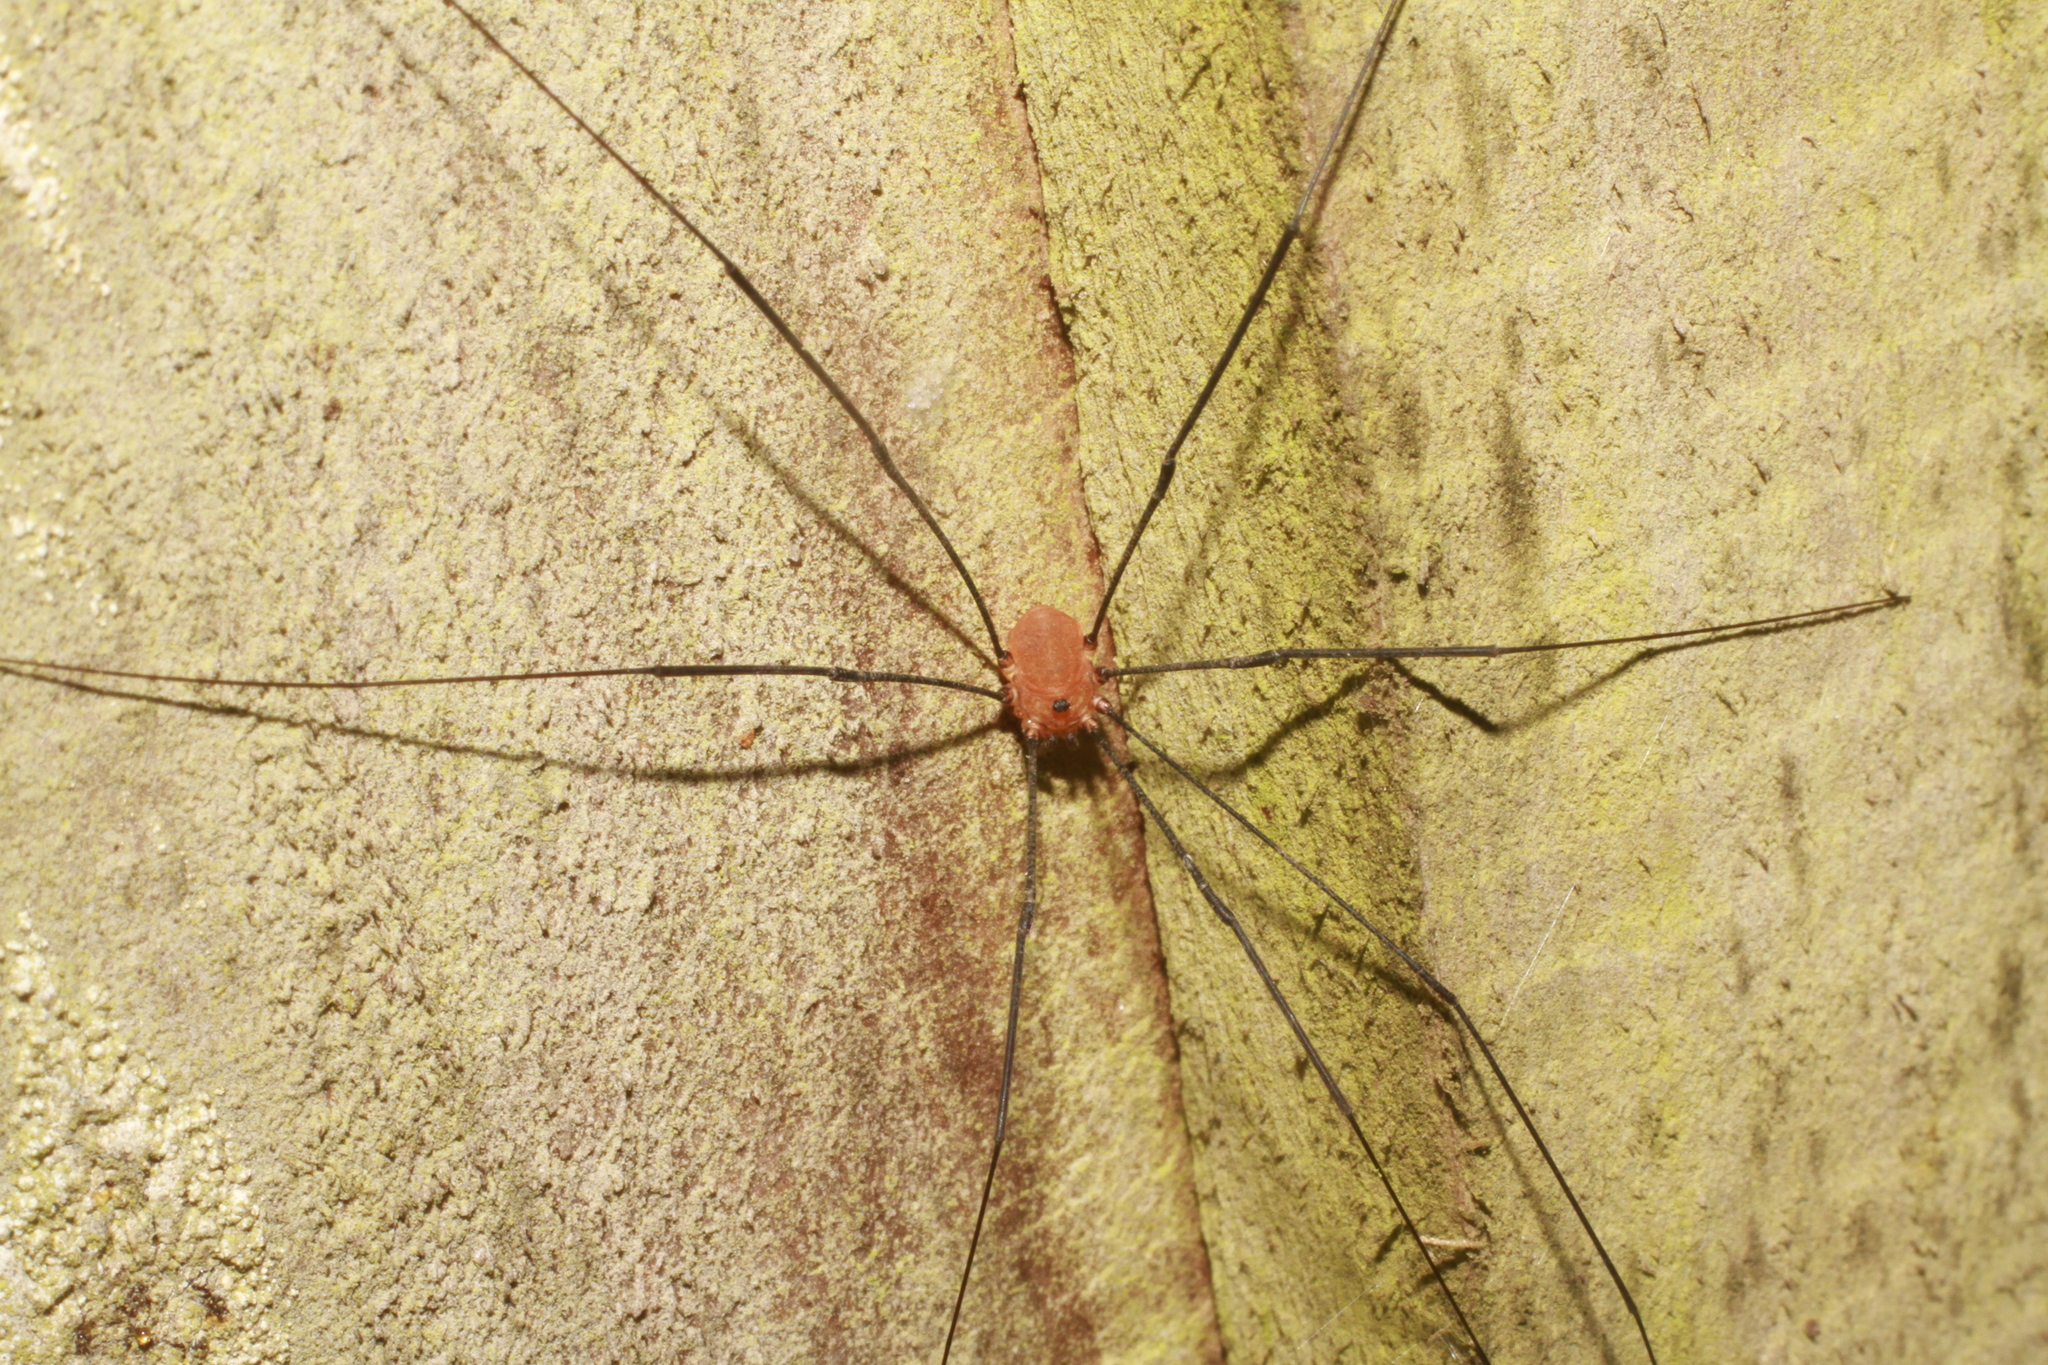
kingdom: Animalia
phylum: Arthropoda
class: Arachnida
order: Opiliones
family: Sclerosomatidae
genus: Leiobunum
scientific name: Leiobunum rotundum
